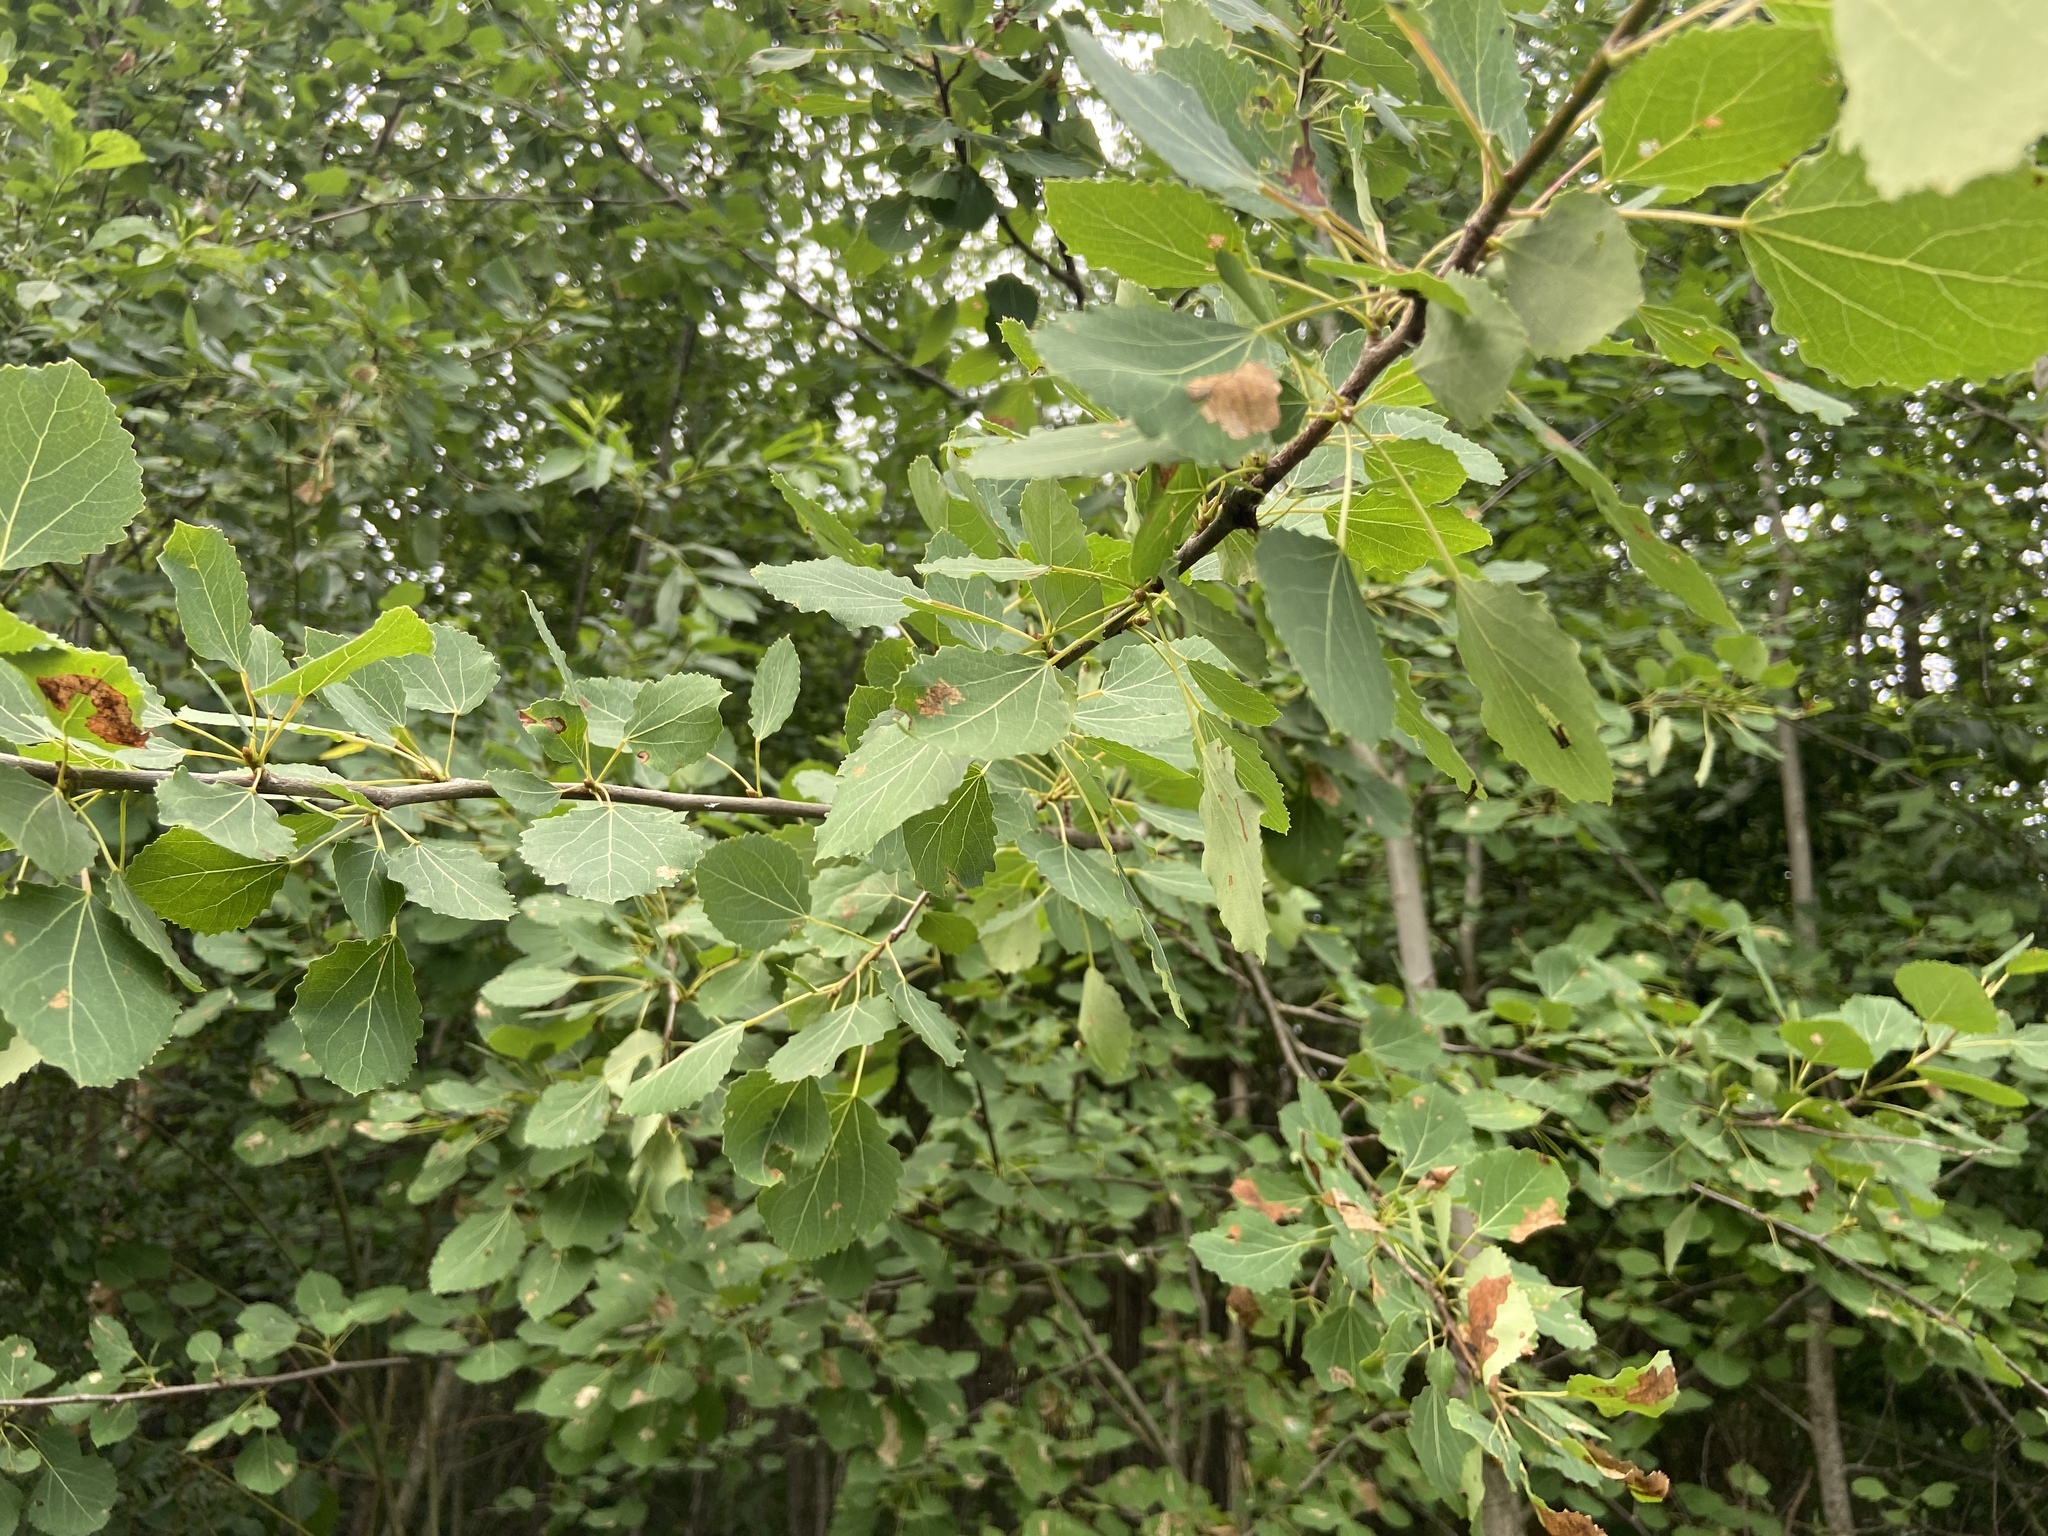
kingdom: Plantae
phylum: Tracheophyta
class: Magnoliopsida
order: Malpighiales
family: Salicaceae
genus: Populus
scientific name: Populus tremula
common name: European aspen
